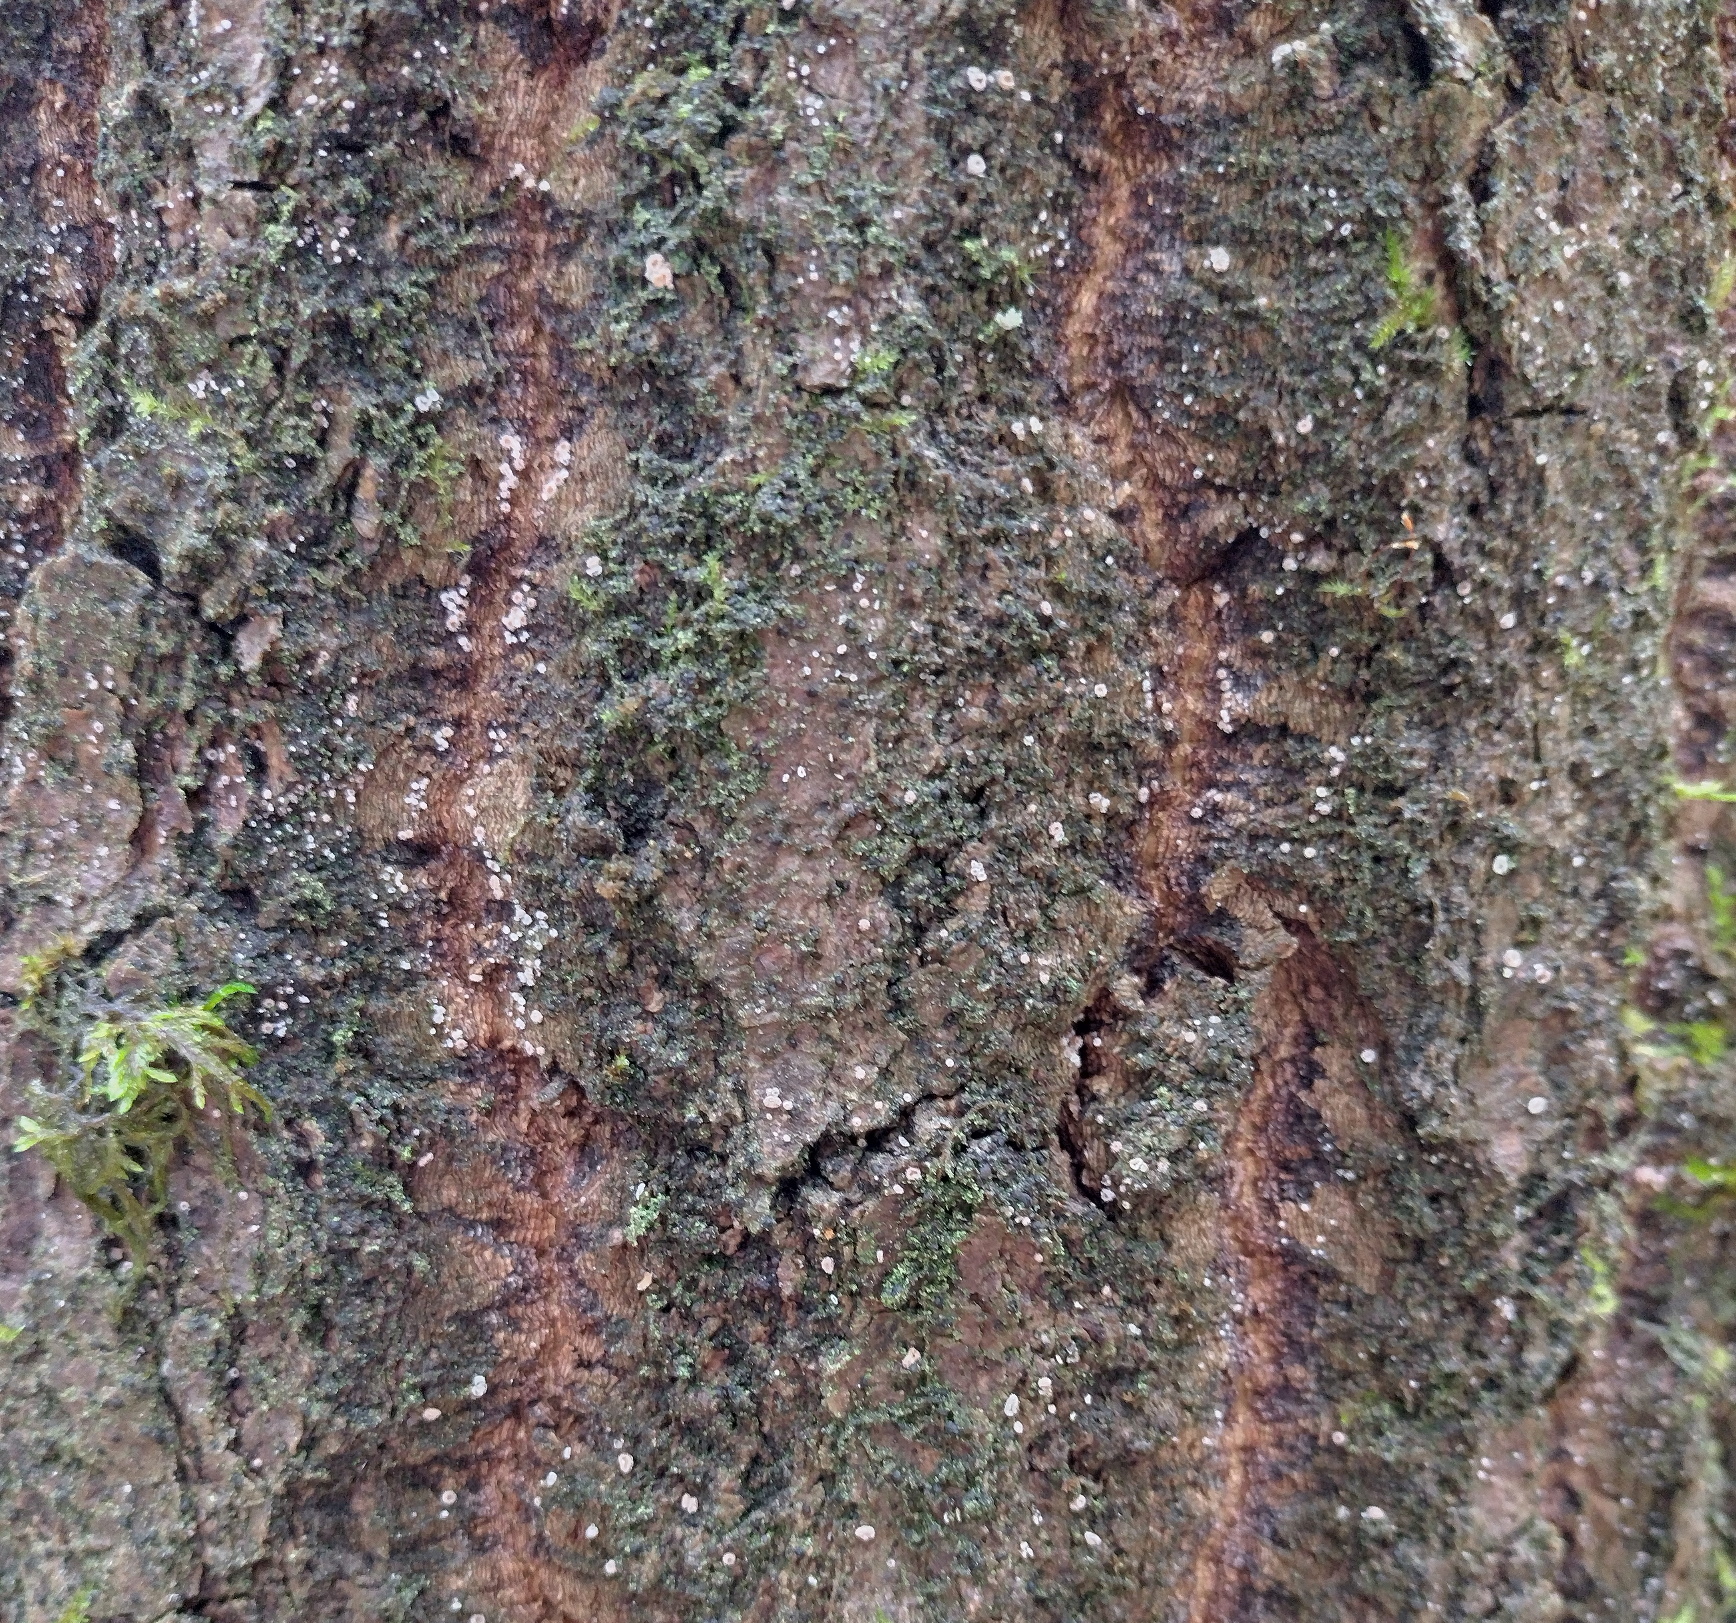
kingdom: Fungi
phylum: Ascomycota
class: Leotiomycetes
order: Helotiales
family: Lachnaceae
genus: Lachnum
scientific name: Lachnum corticale
